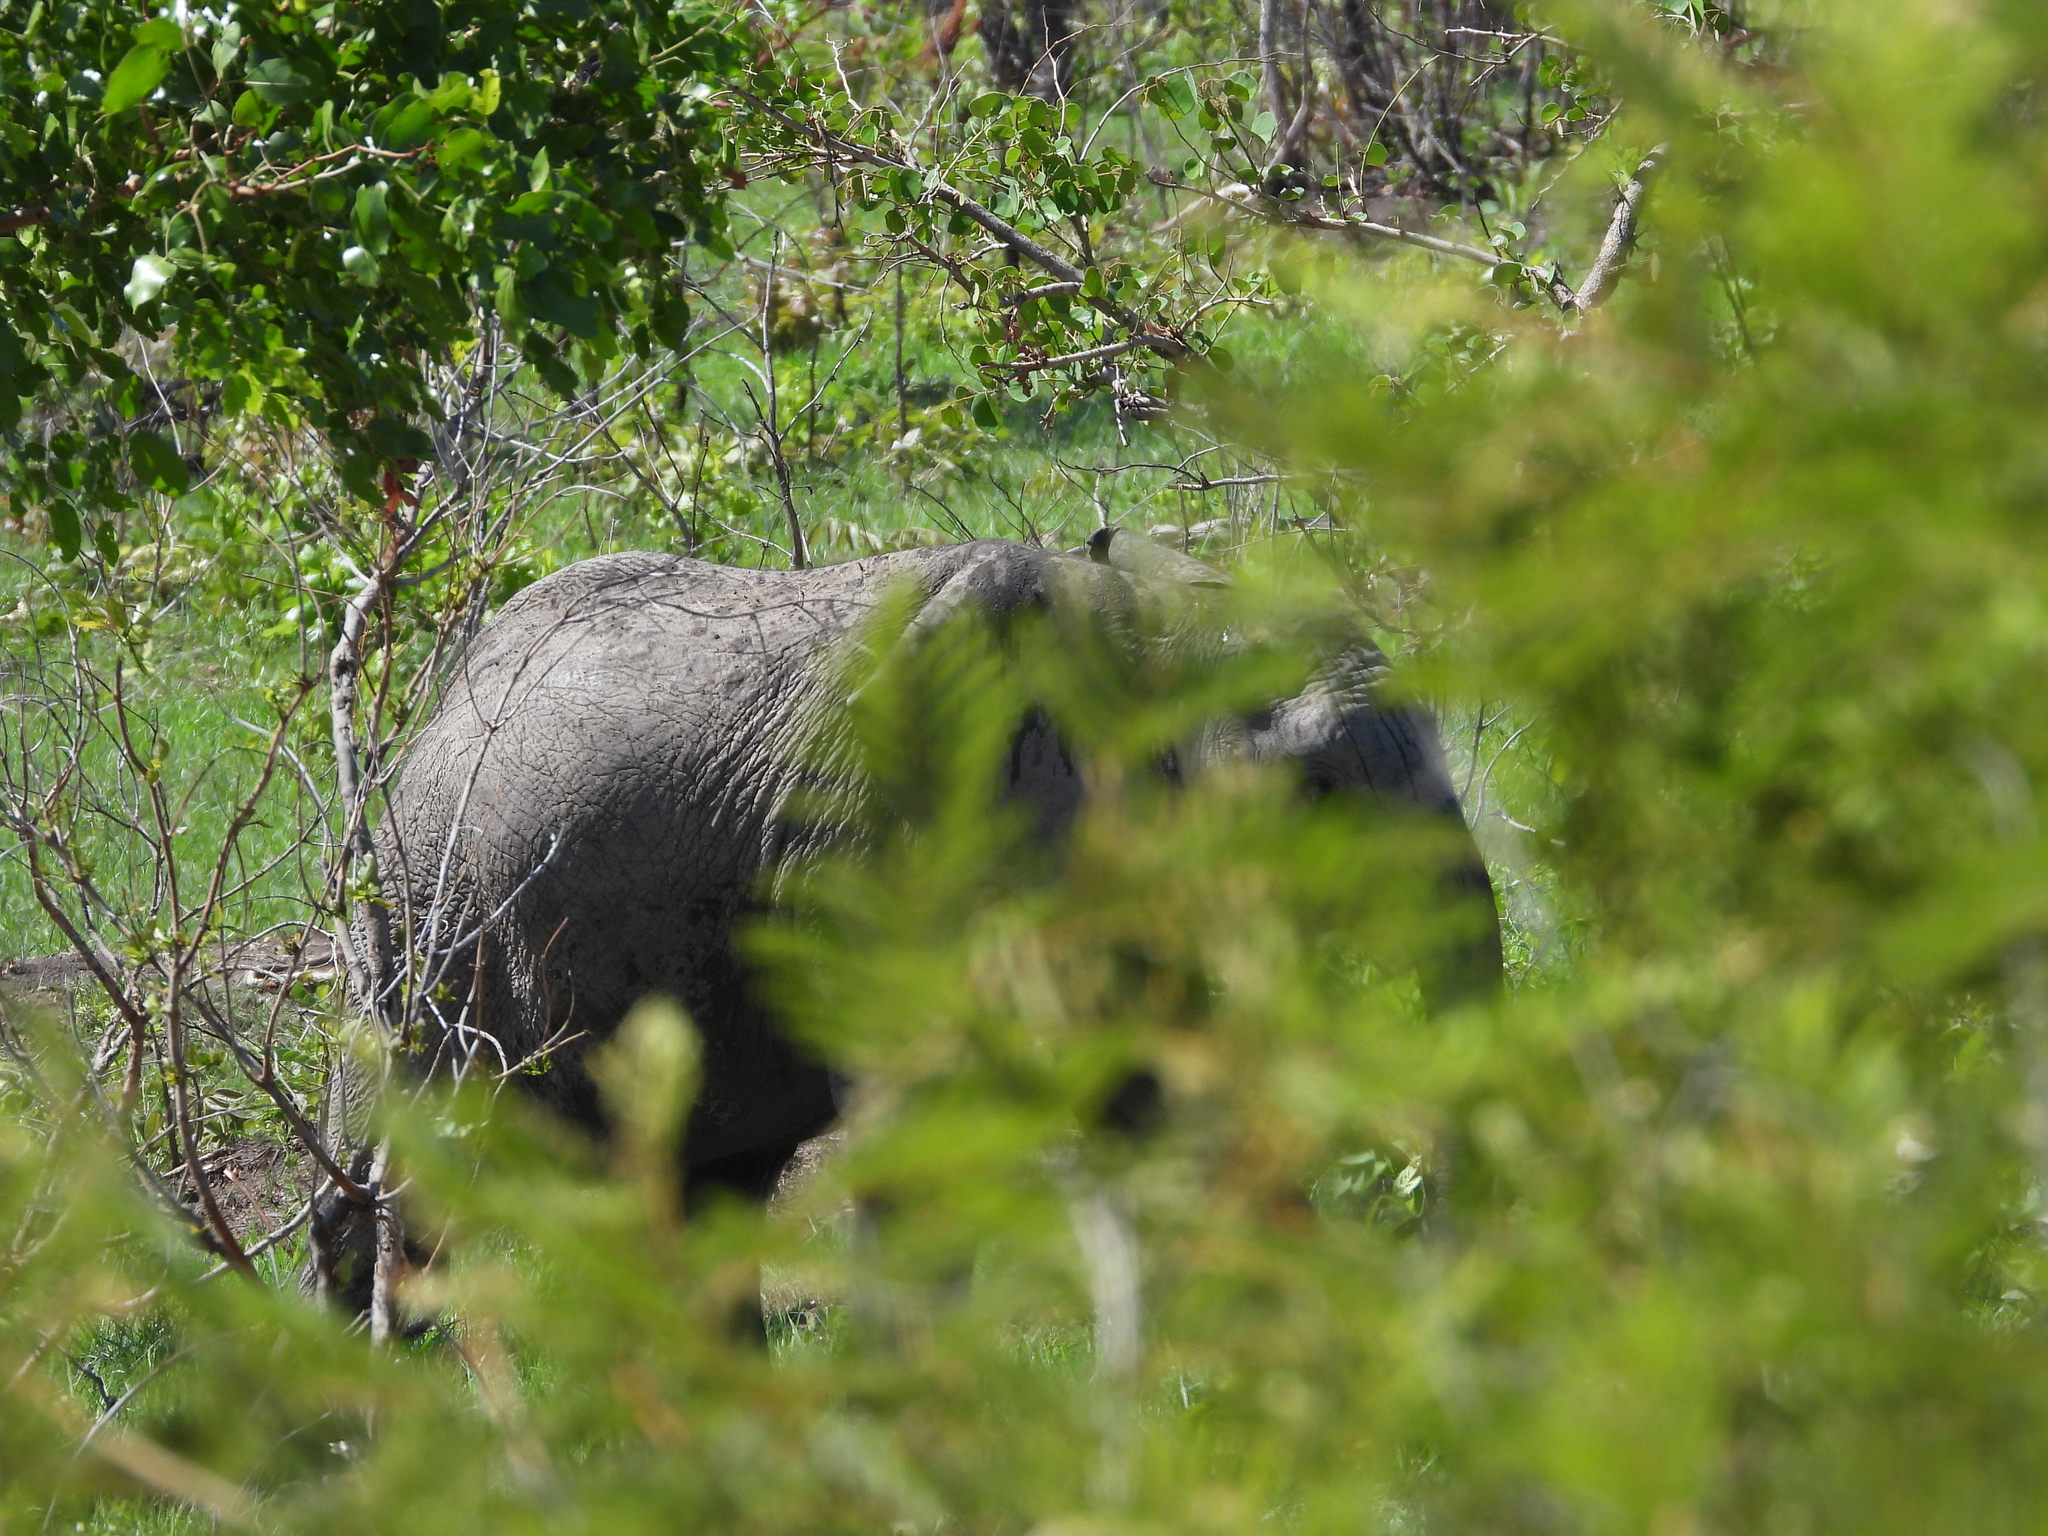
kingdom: Animalia
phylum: Chordata
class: Mammalia
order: Proboscidea
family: Elephantidae
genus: Loxodonta
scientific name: Loxodonta africana
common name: African elephant
